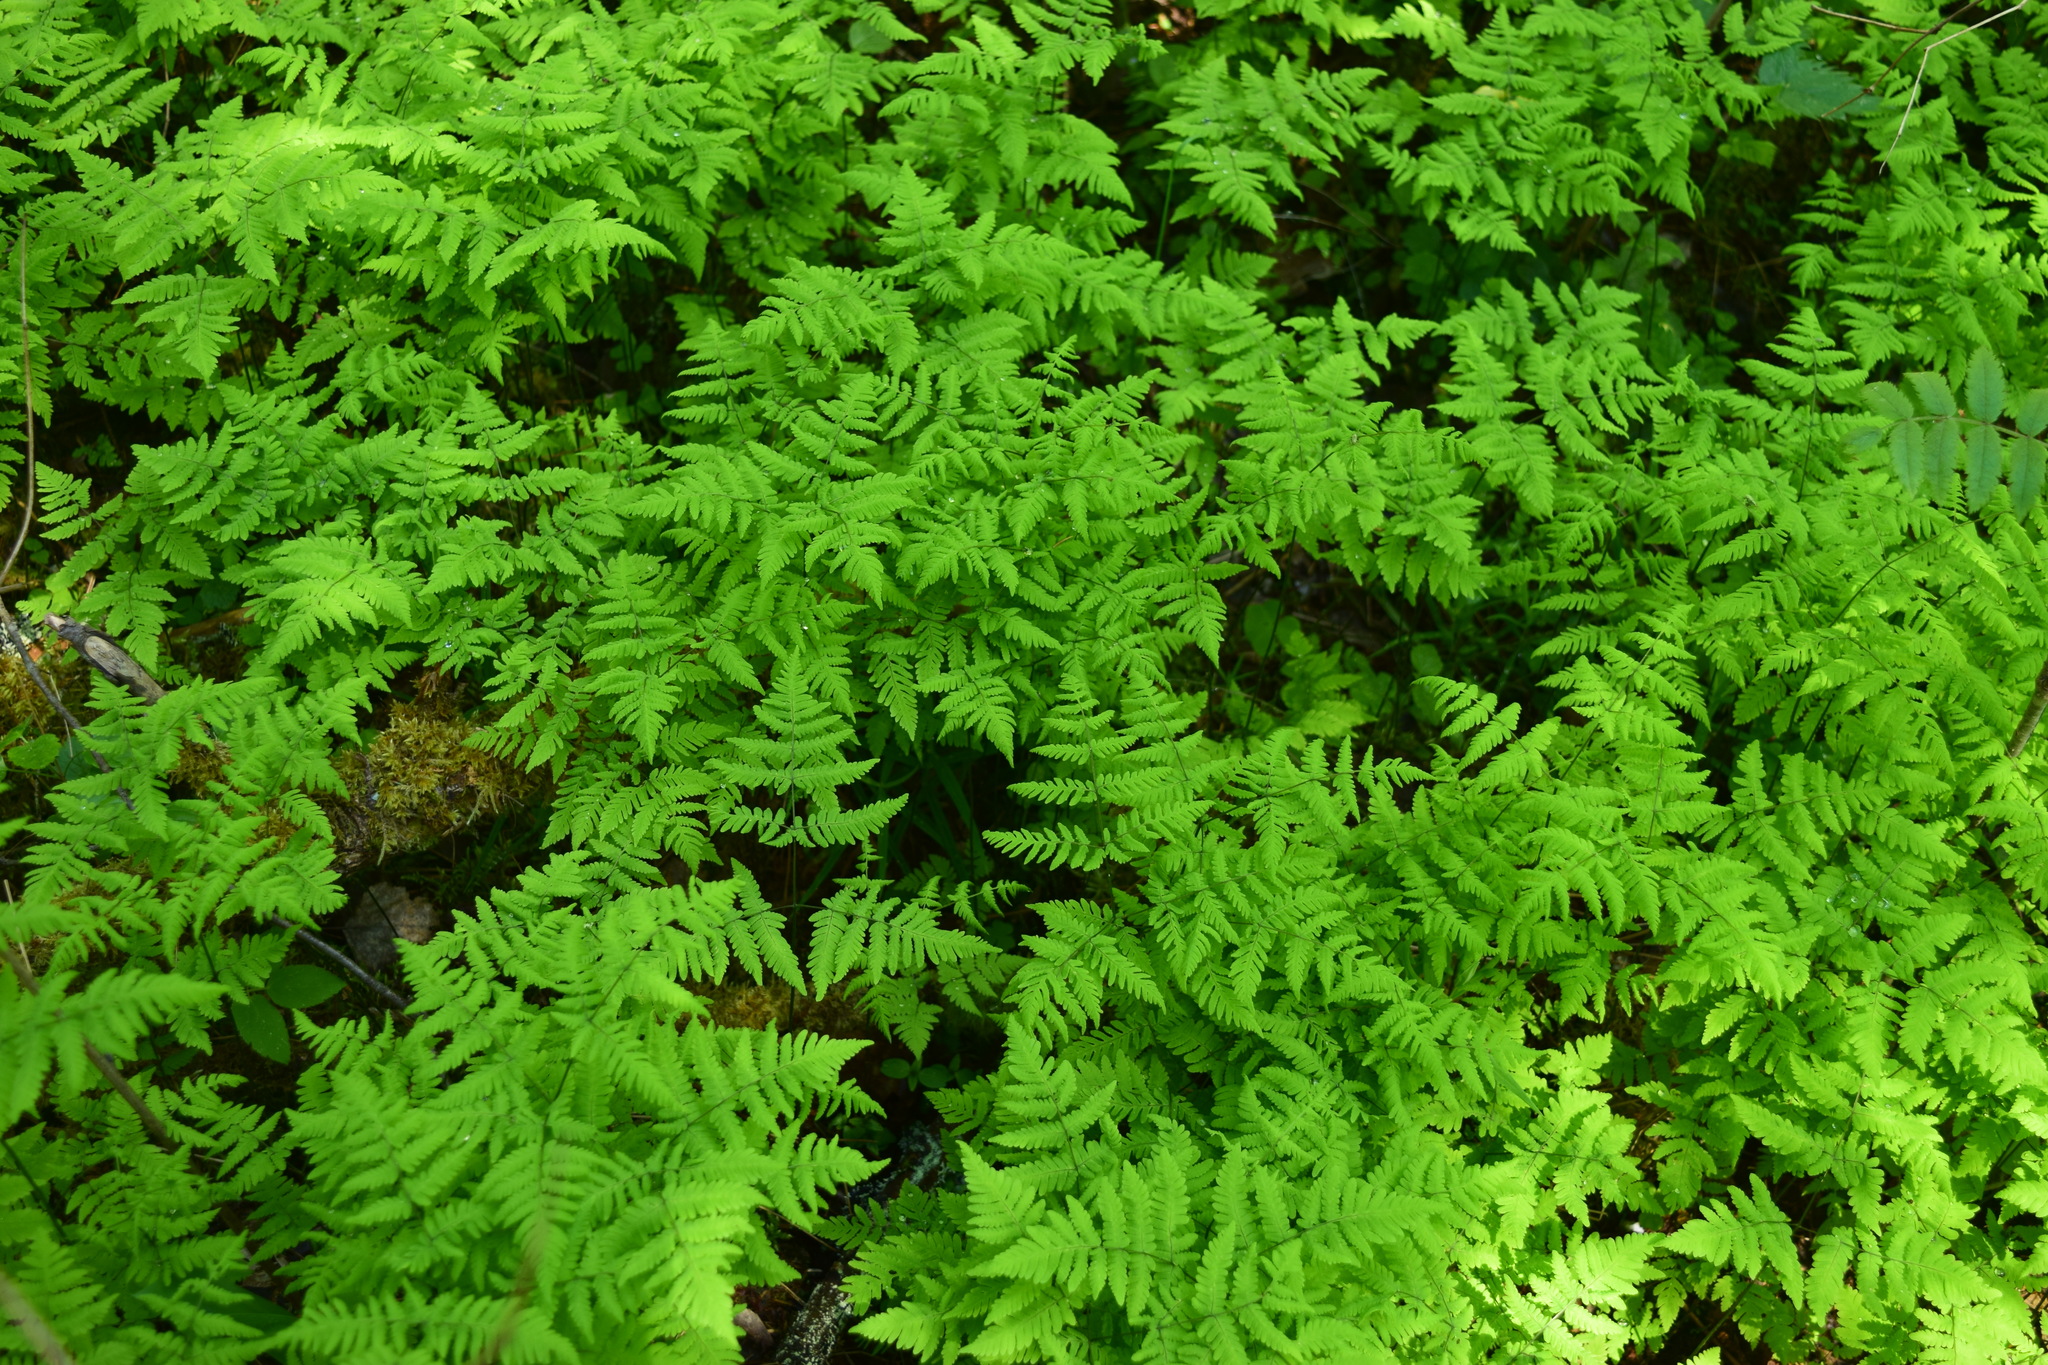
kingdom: Plantae
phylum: Tracheophyta
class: Polypodiopsida
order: Polypodiales
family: Cystopteridaceae
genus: Gymnocarpium
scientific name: Gymnocarpium dryopteris
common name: Oak fern
